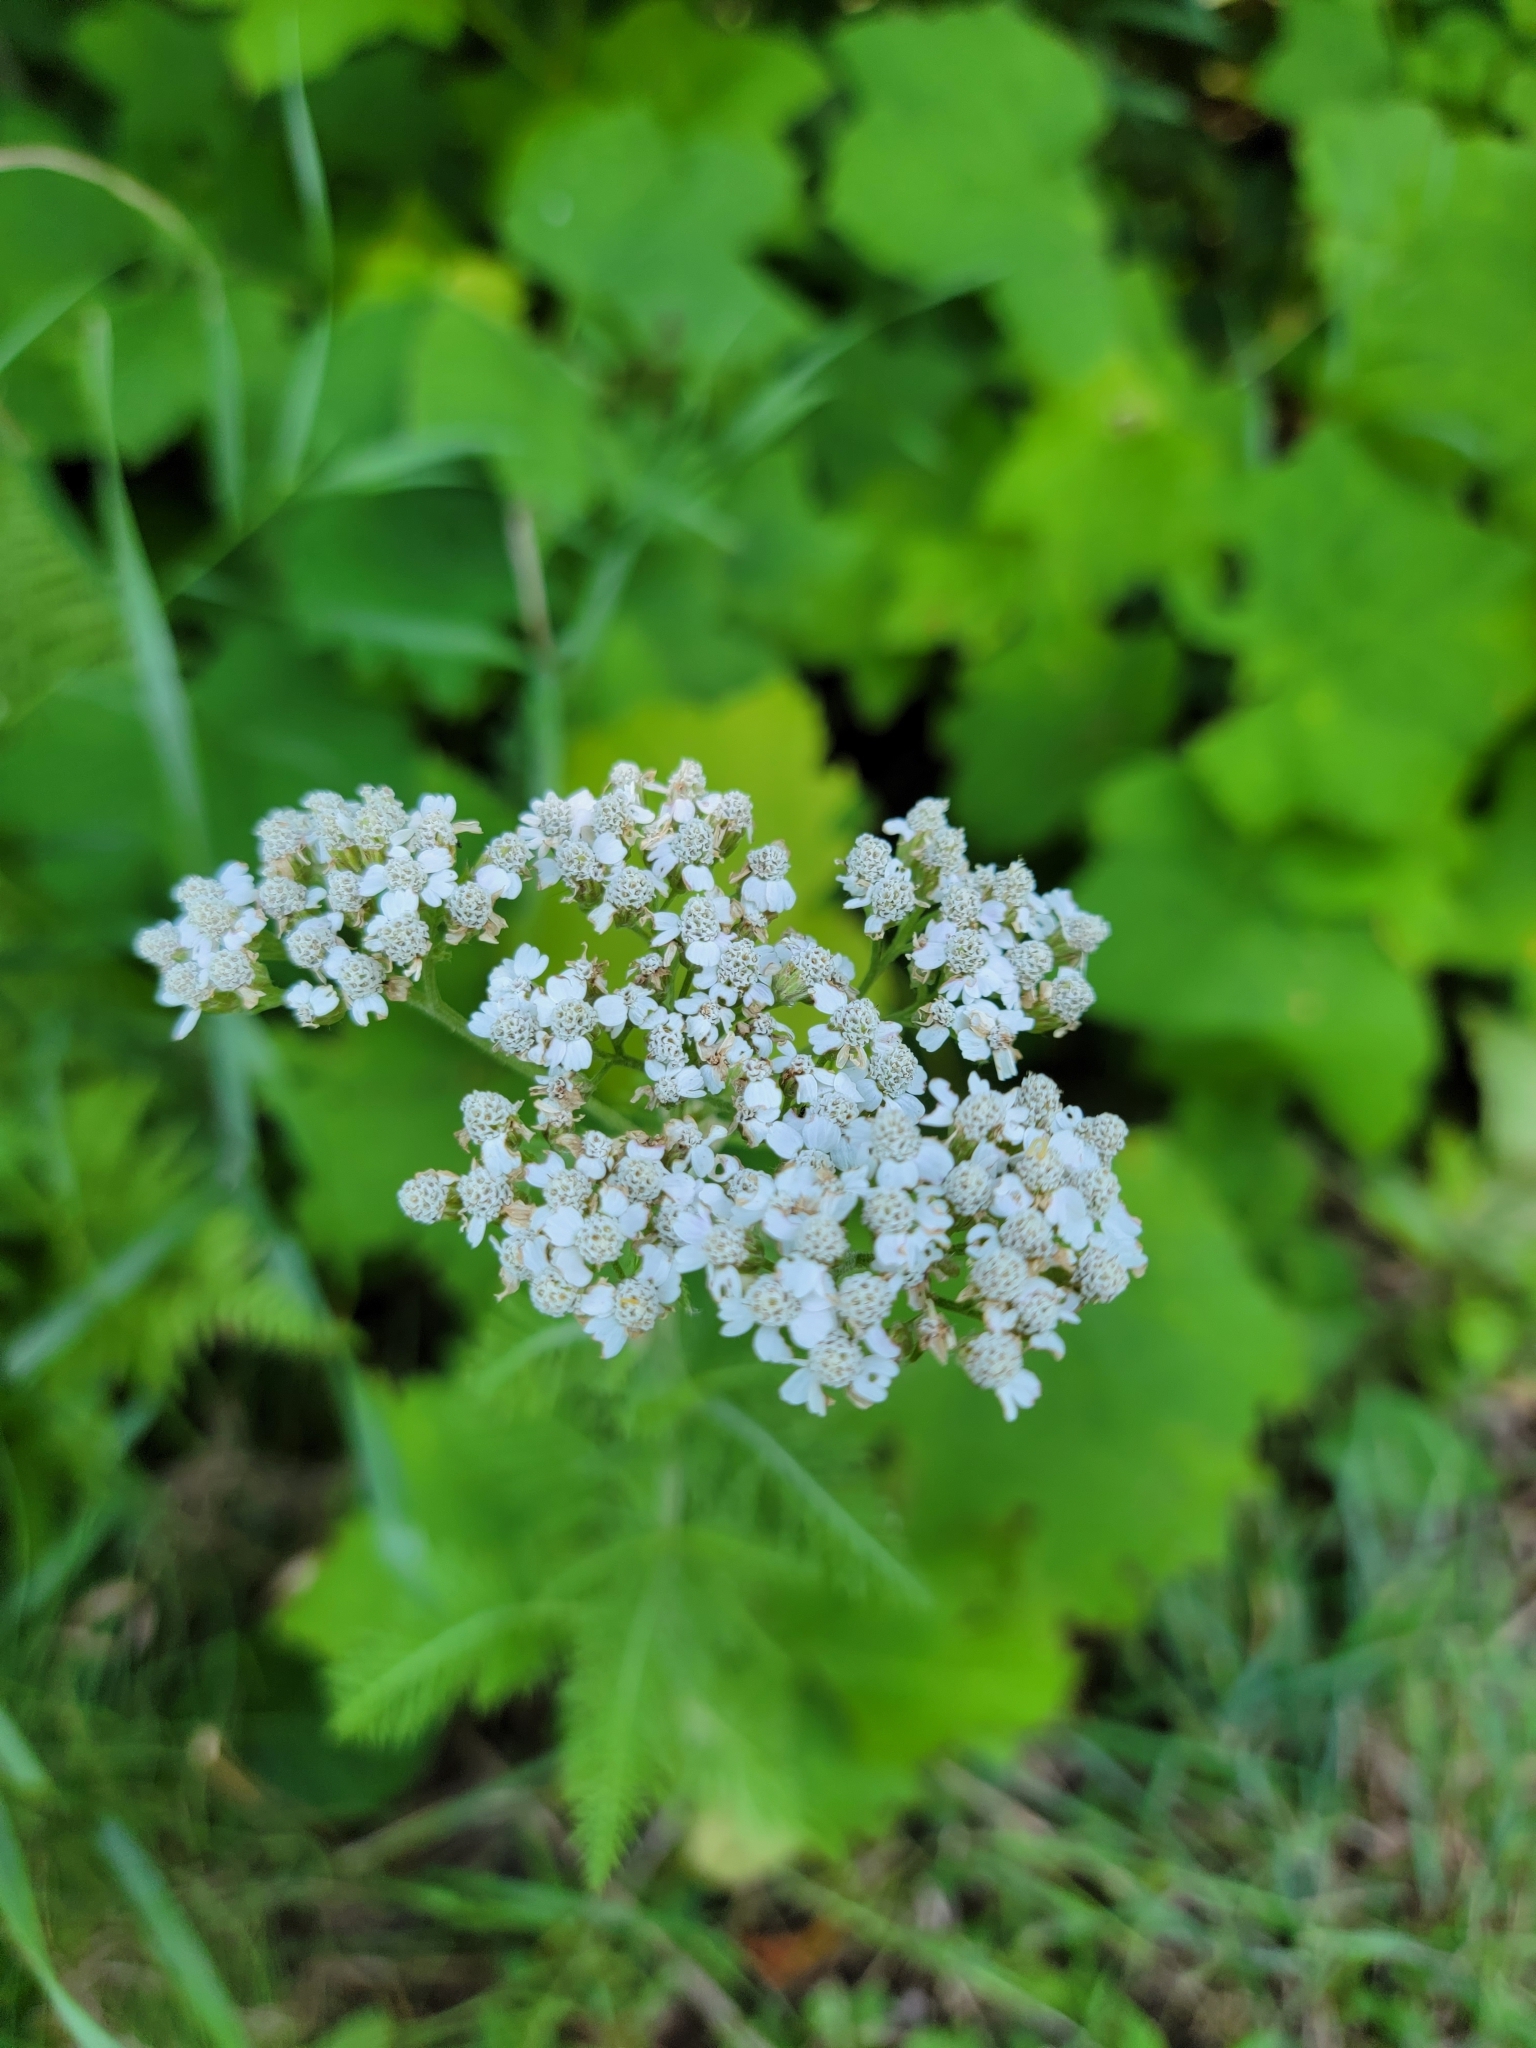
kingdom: Plantae
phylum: Tracheophyta
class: Magnoliopsida
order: Asterales
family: Asteraceae
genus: Achillea
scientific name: Achillea millefolium
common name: Yarrow
